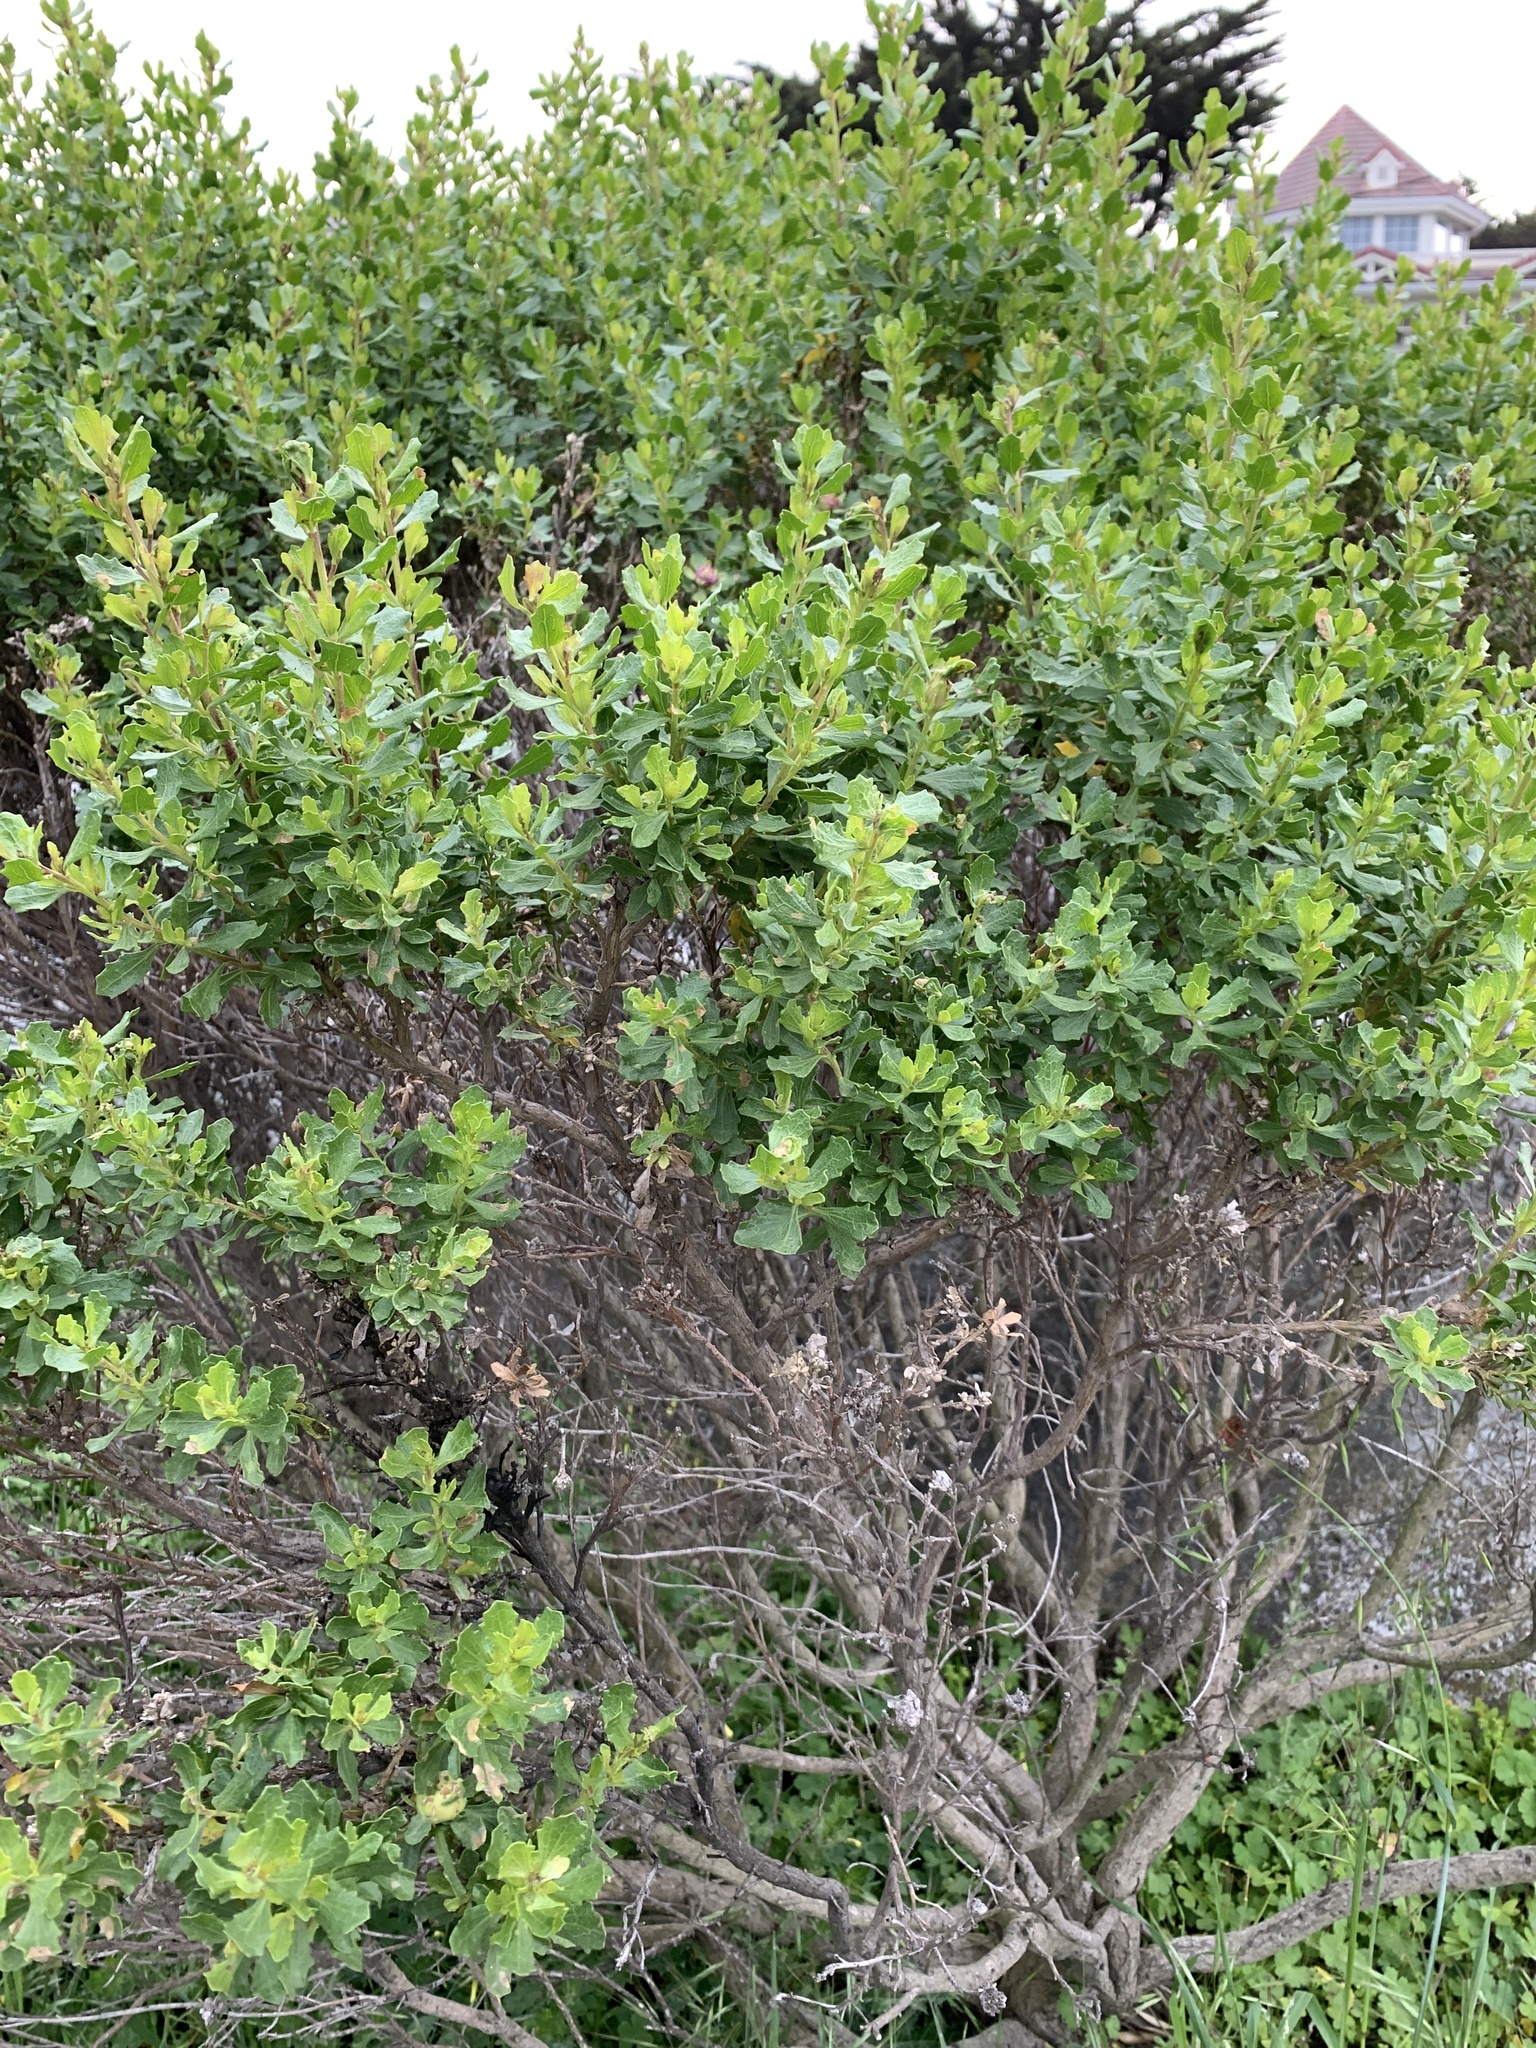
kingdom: Plantae
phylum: Tracheophyta
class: Magnoliopsida
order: Asterales
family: Asteraceae
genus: Baccharis
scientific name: Baccharis pilularis
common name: Coyotebrush
